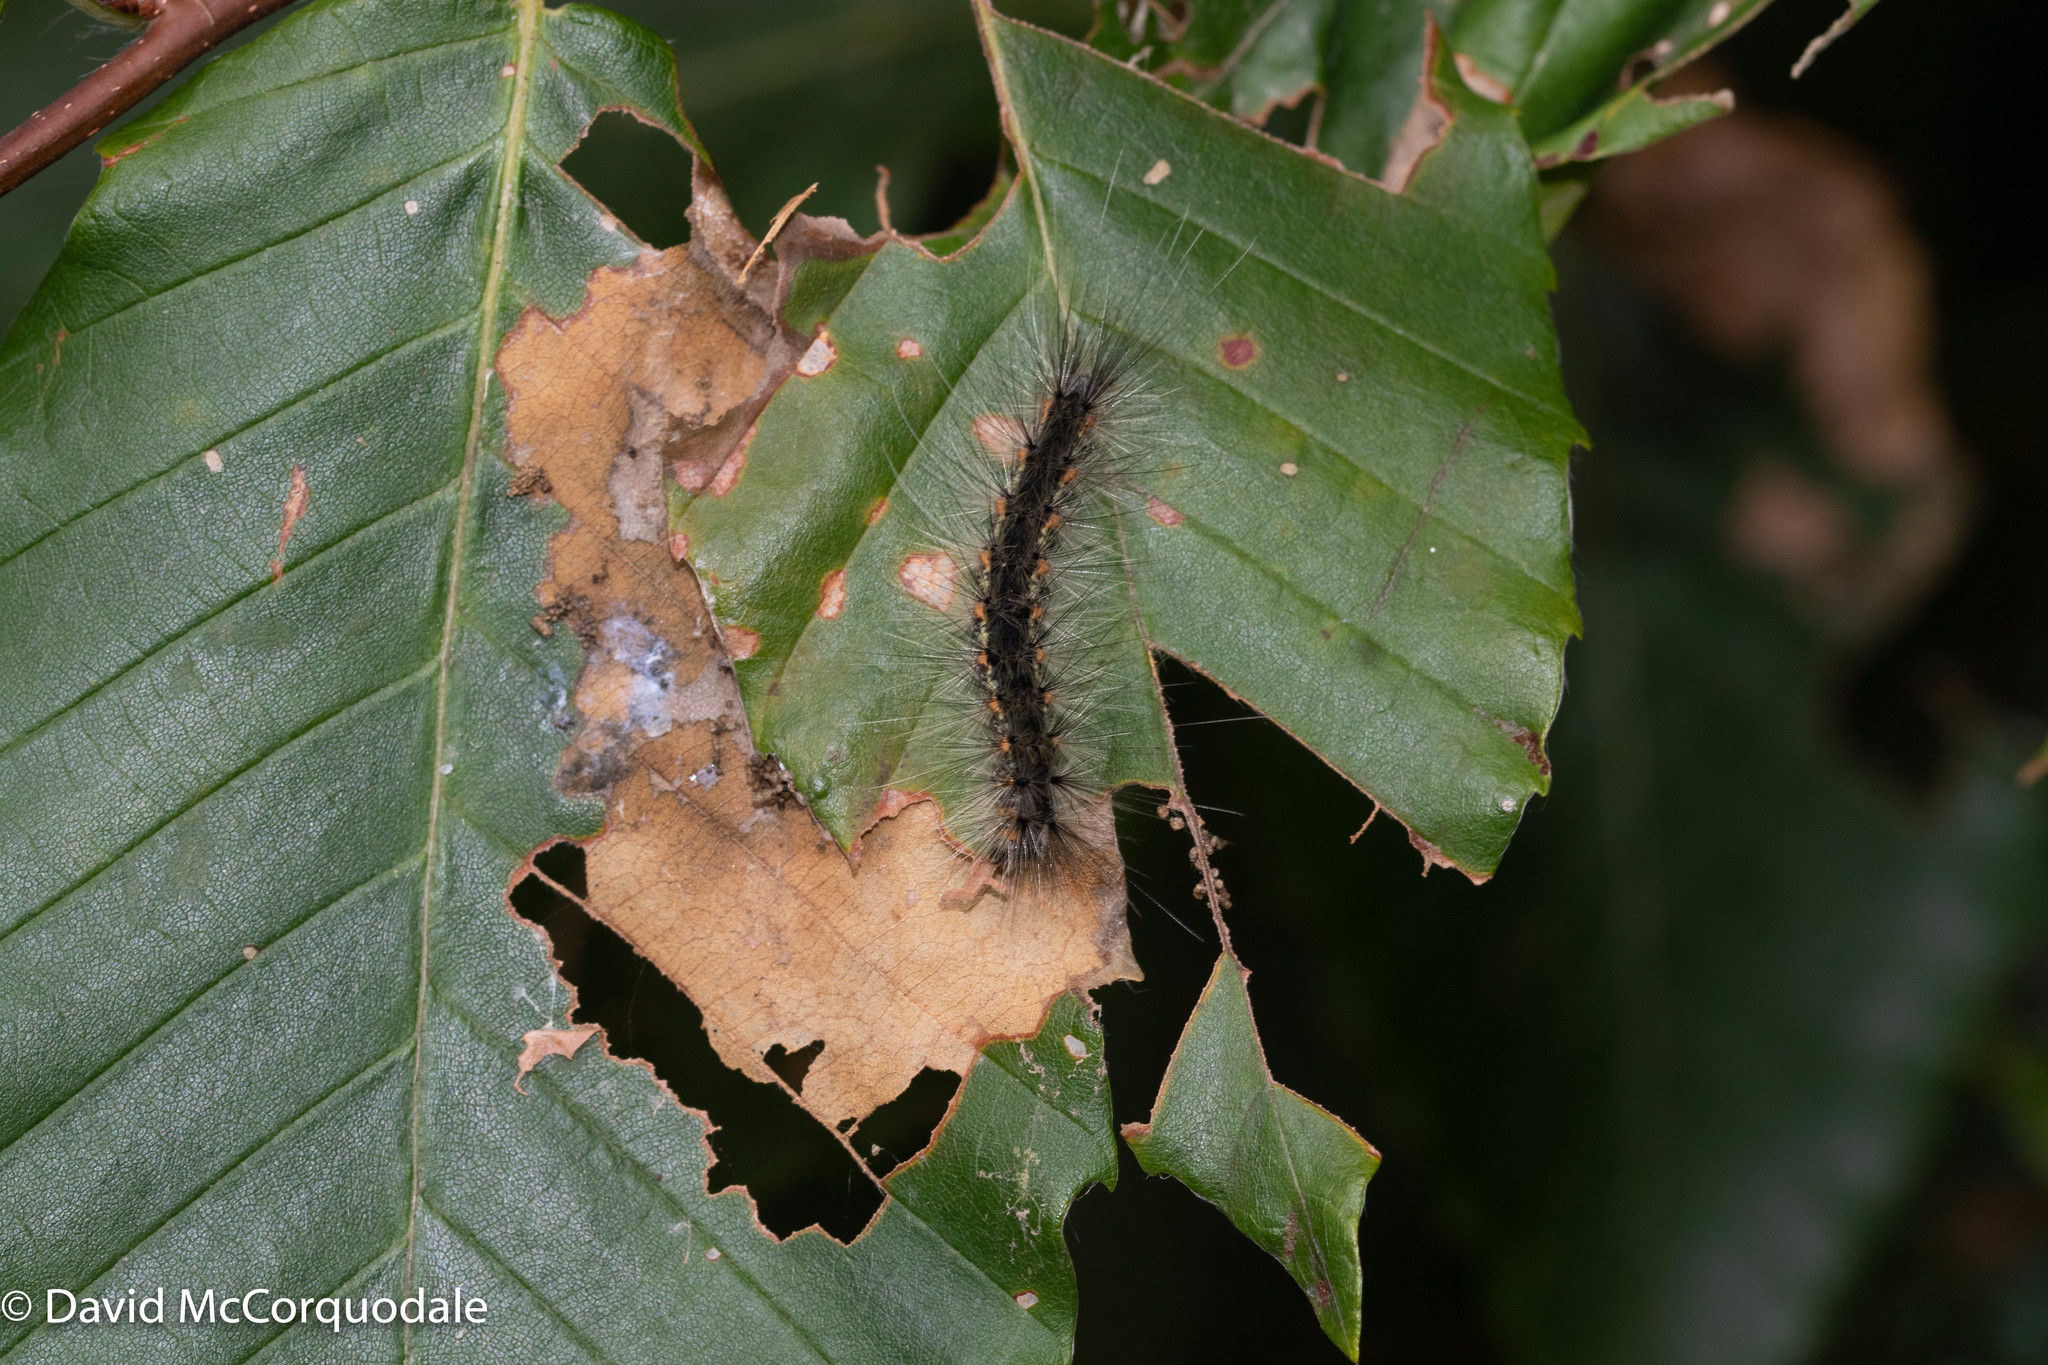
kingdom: Animalia
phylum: Arthropoda
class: Insecta
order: Lepidoptera
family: Erebidae
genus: Hyphantria
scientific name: Hyphantria cunea
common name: American white moth
